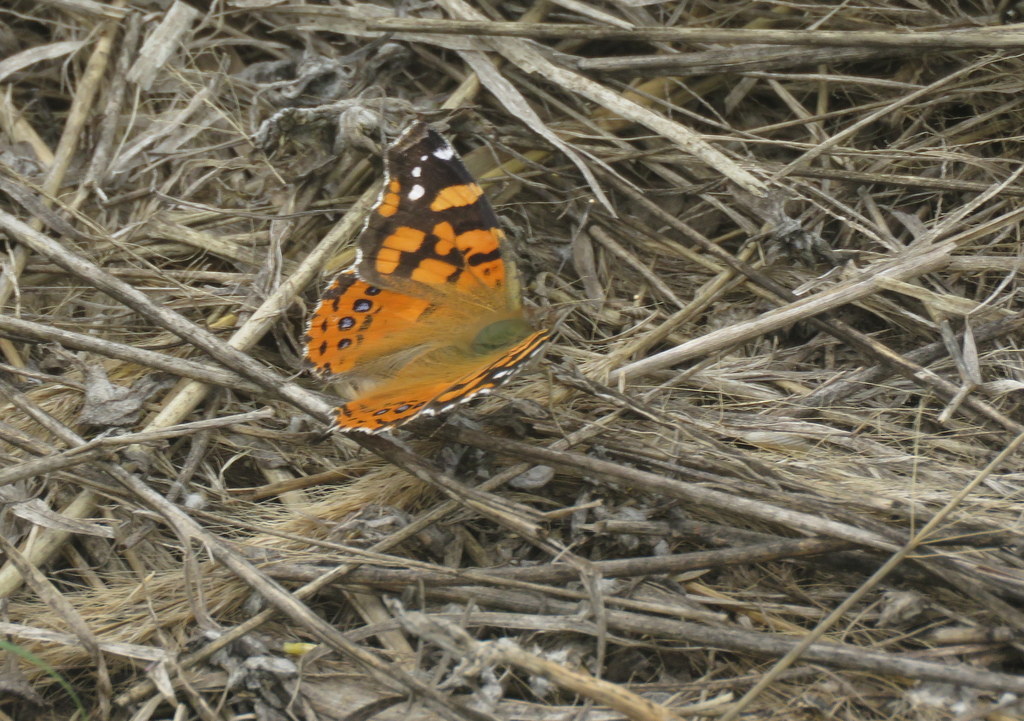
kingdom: Animalia
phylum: Arthropoda
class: Insecta
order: Lepidoptera
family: Nymphalidae
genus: Vanessa
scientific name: Vanessa carye
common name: Subtropical lady
